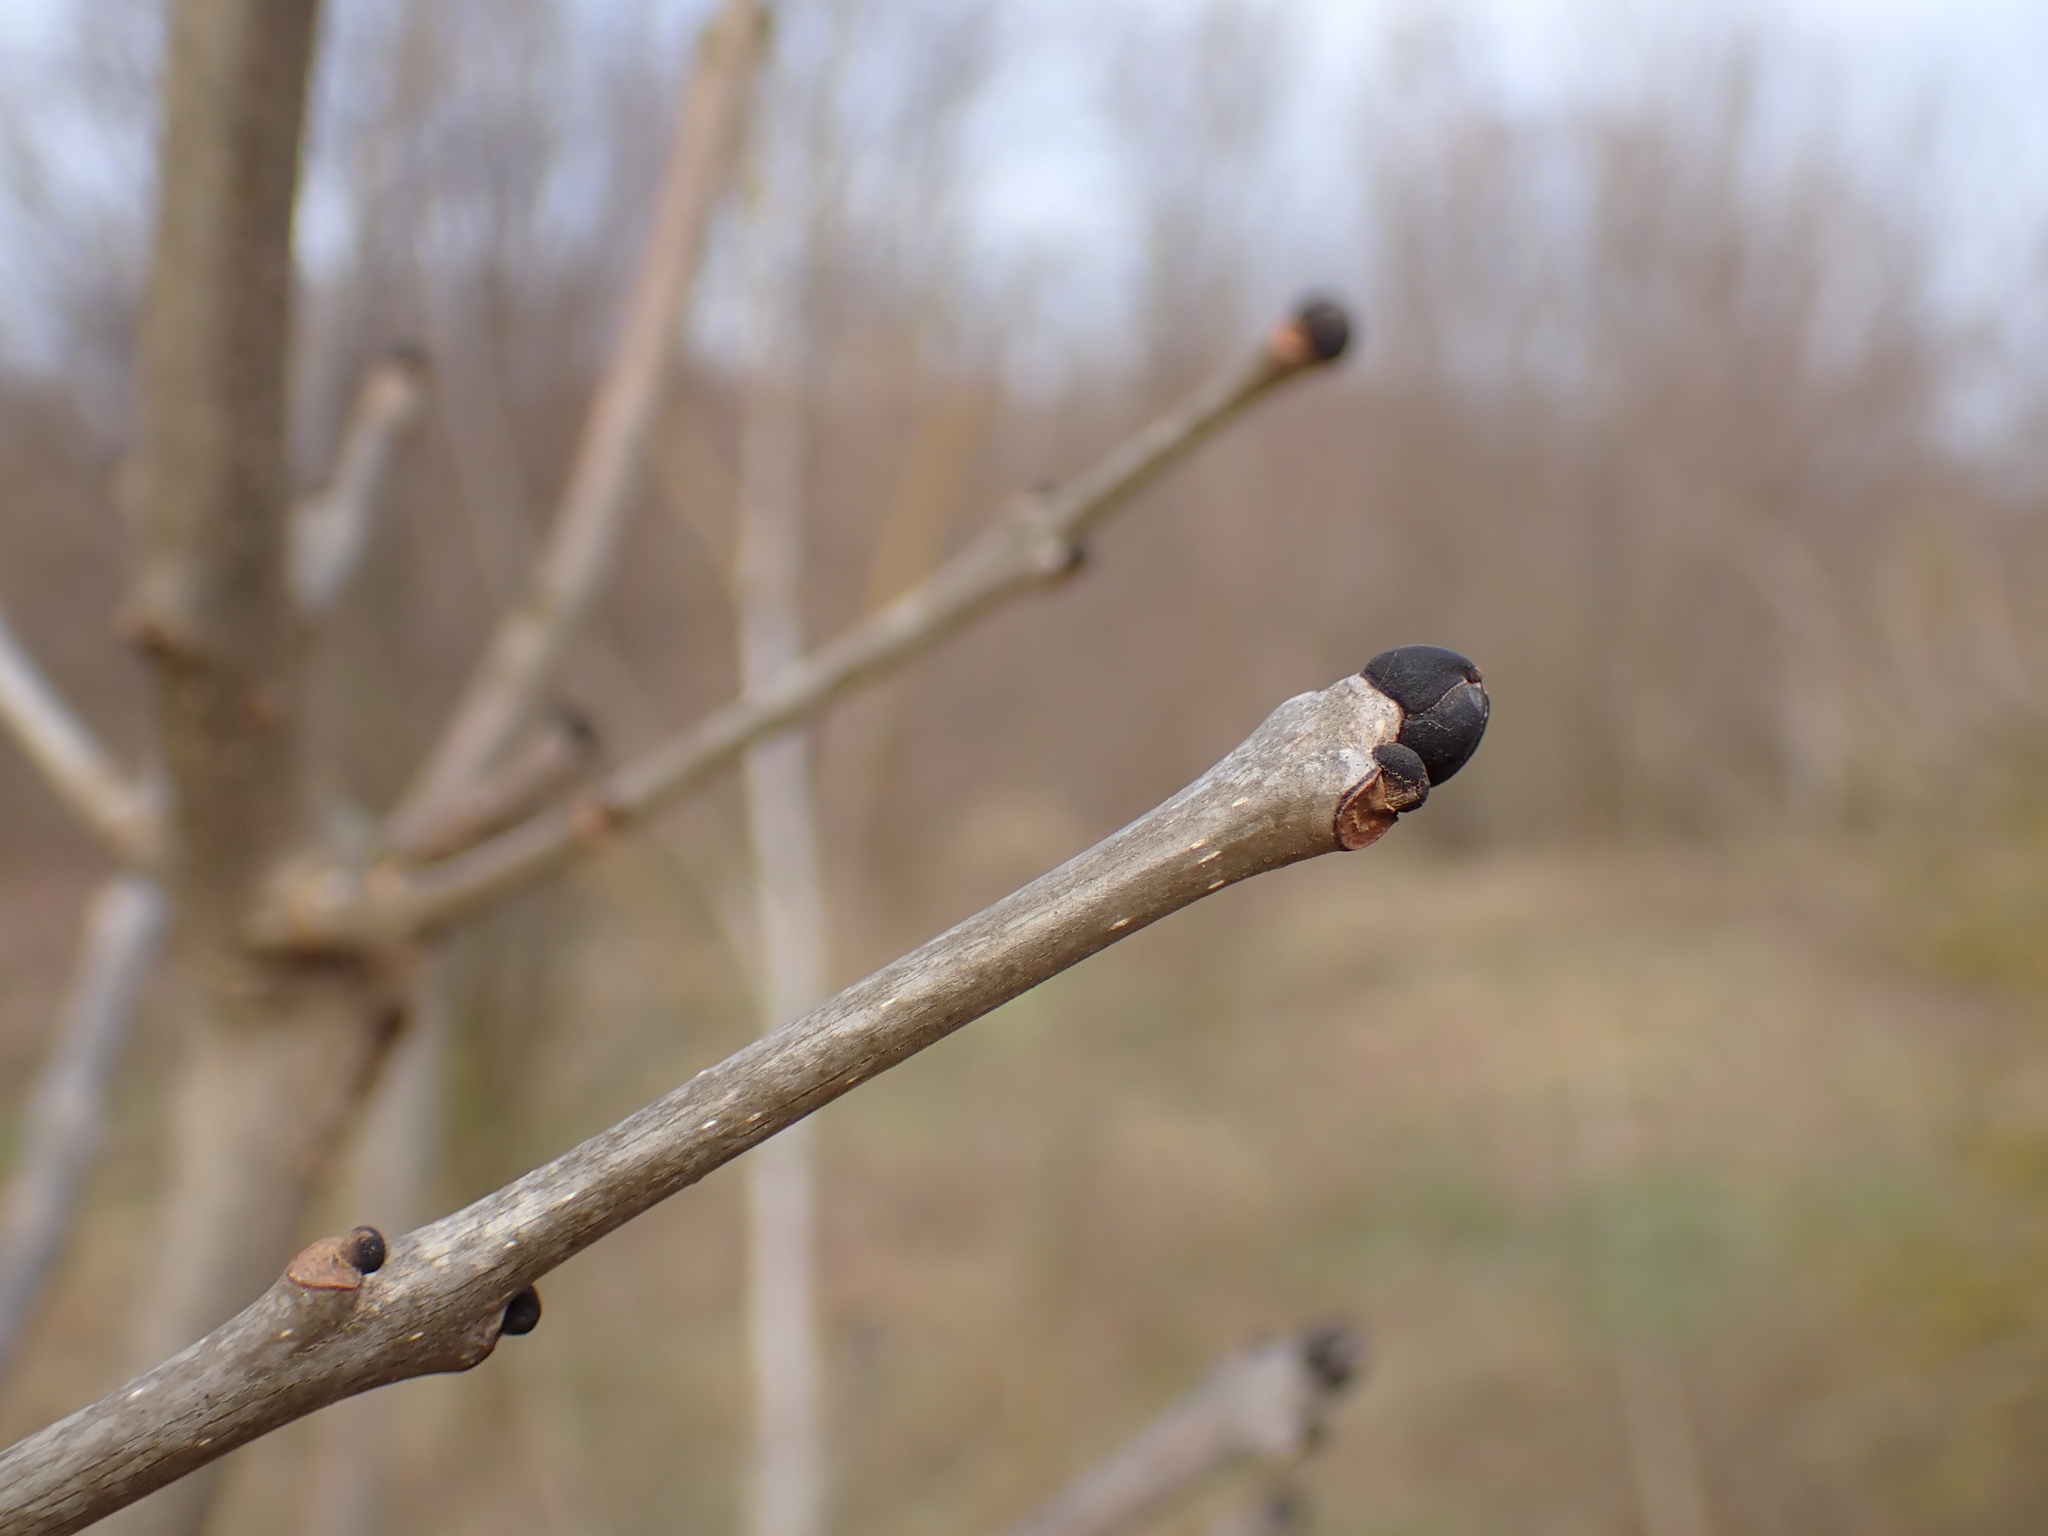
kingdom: Plantae
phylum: Tracheophyta
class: Magnoliopsida
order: Lamiales
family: Oleaceae
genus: Fraxinus
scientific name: Fraxinus excelsior
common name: European ash
